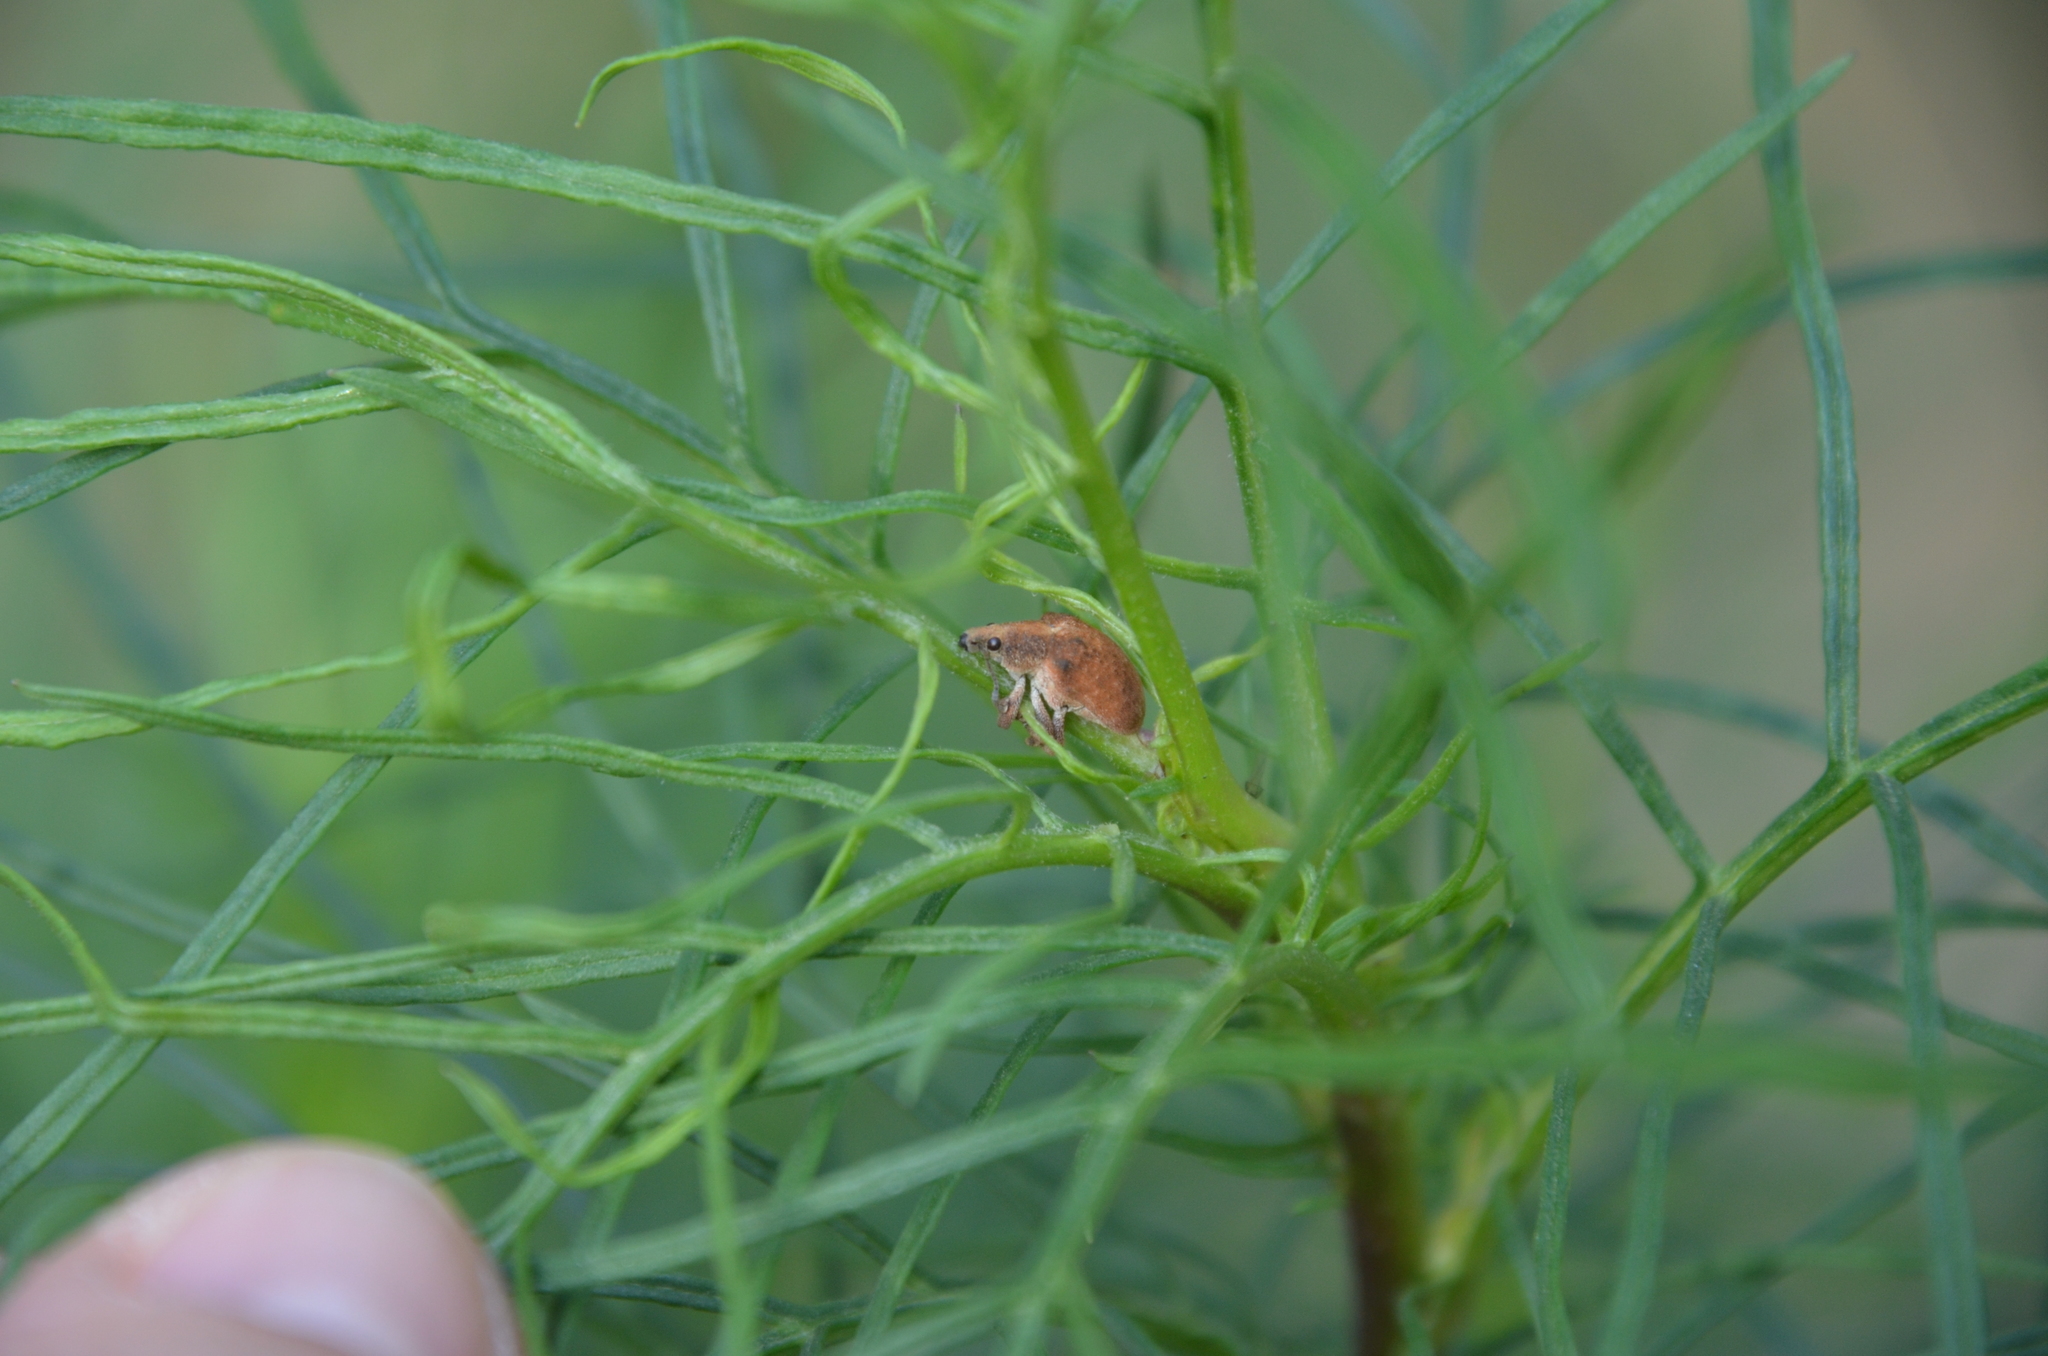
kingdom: Animalia
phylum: Arthropoda
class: Insecta
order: Coleoptera
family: Curculionidae
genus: Gonipterus
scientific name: Gonipterus platensis
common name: Eucalyptus snout beetle
